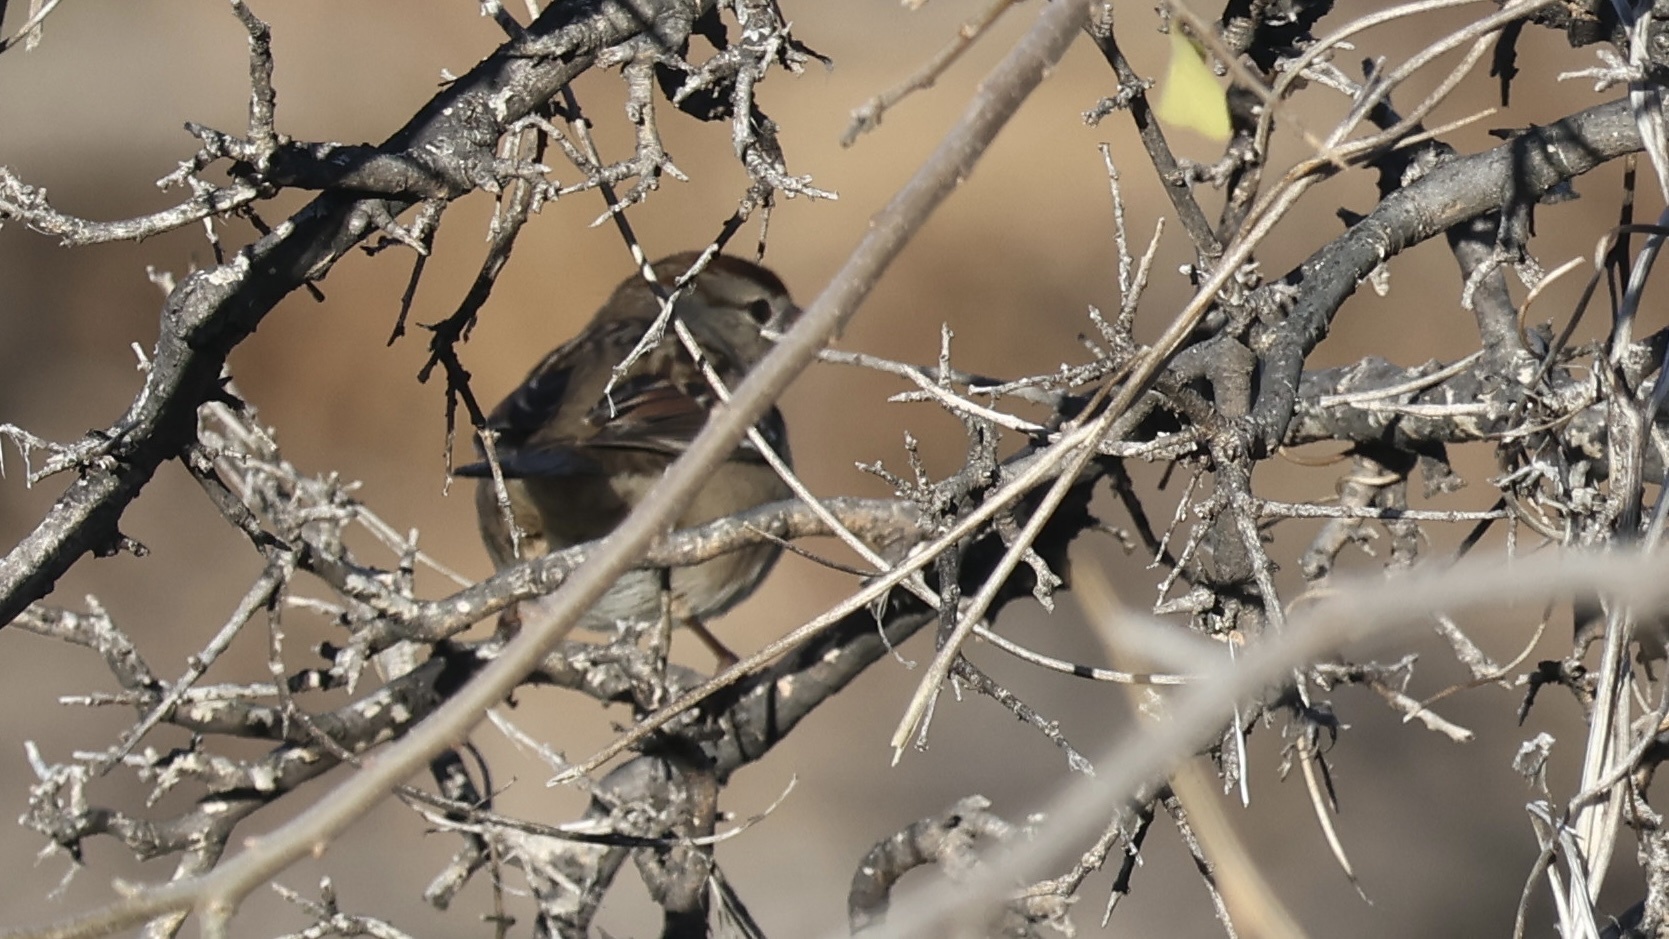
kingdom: Animalia
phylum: Chordata
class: Aves
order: Passeriformes
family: Passerellidae
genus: Zonotrichia
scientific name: Zonotrichia leucophrys
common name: White-crowned sparrow
